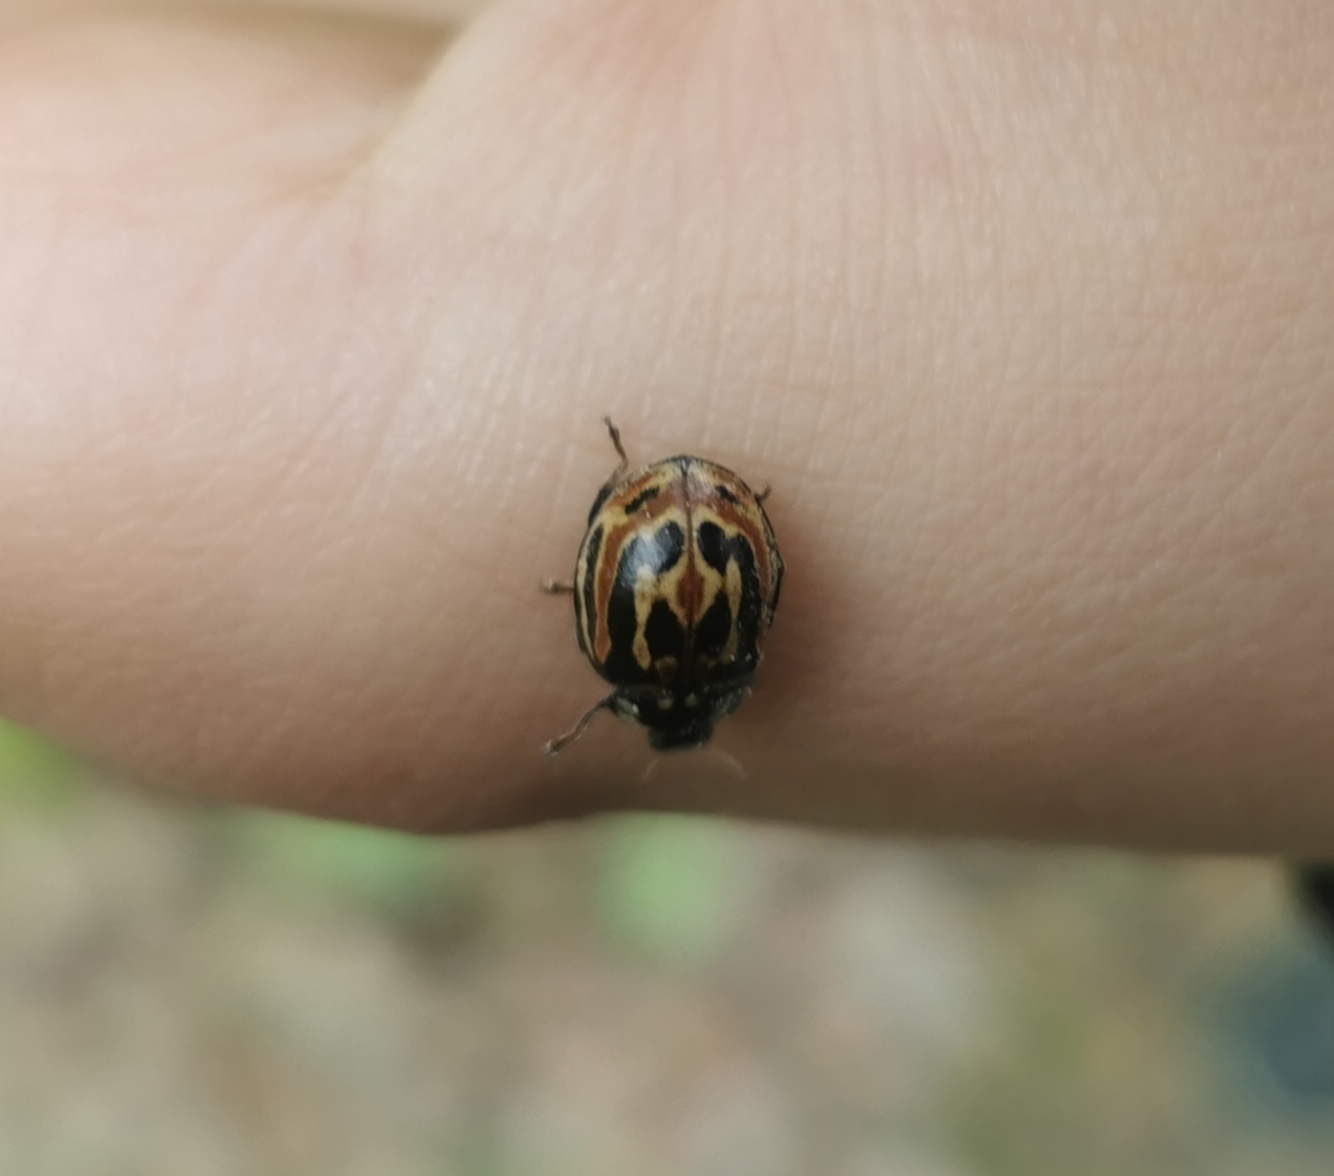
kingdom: Animalia
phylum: Arthropoda
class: Insecta
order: Coleoptera
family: Coccinellidae
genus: Anatis
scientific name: Anatis ocellata
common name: Eyed ladybird
